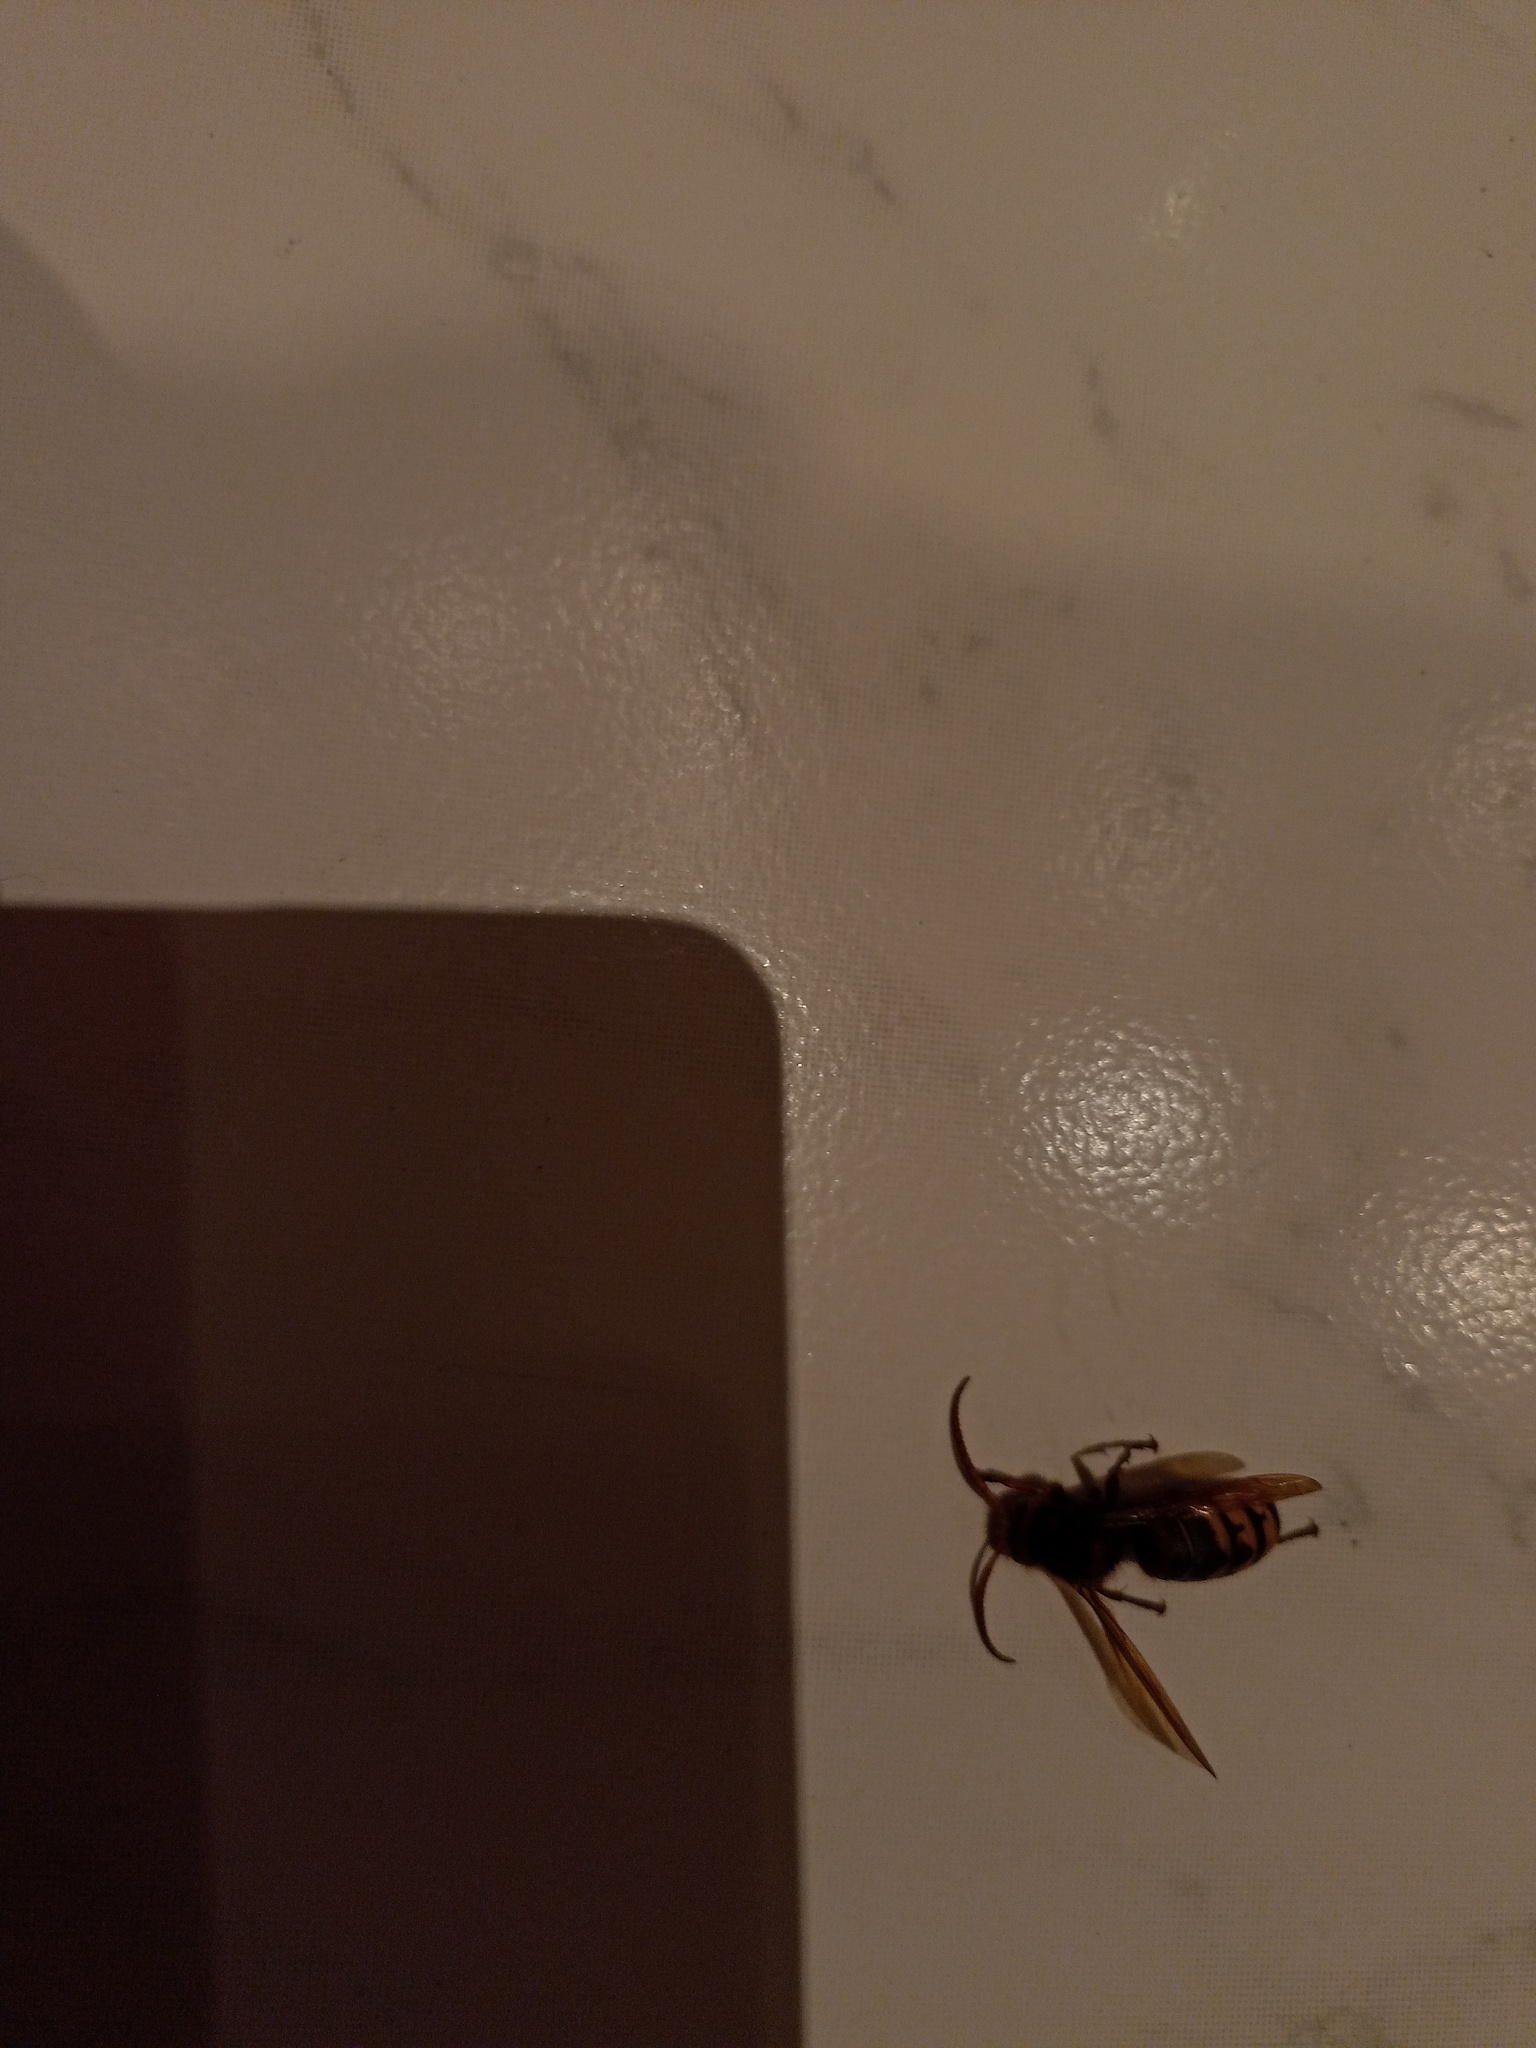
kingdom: Animalia
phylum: Arthropoda
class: Insecta
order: Hymenoptera
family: Vespidae
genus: Vespa
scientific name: Vespa crabro
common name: Hornet
